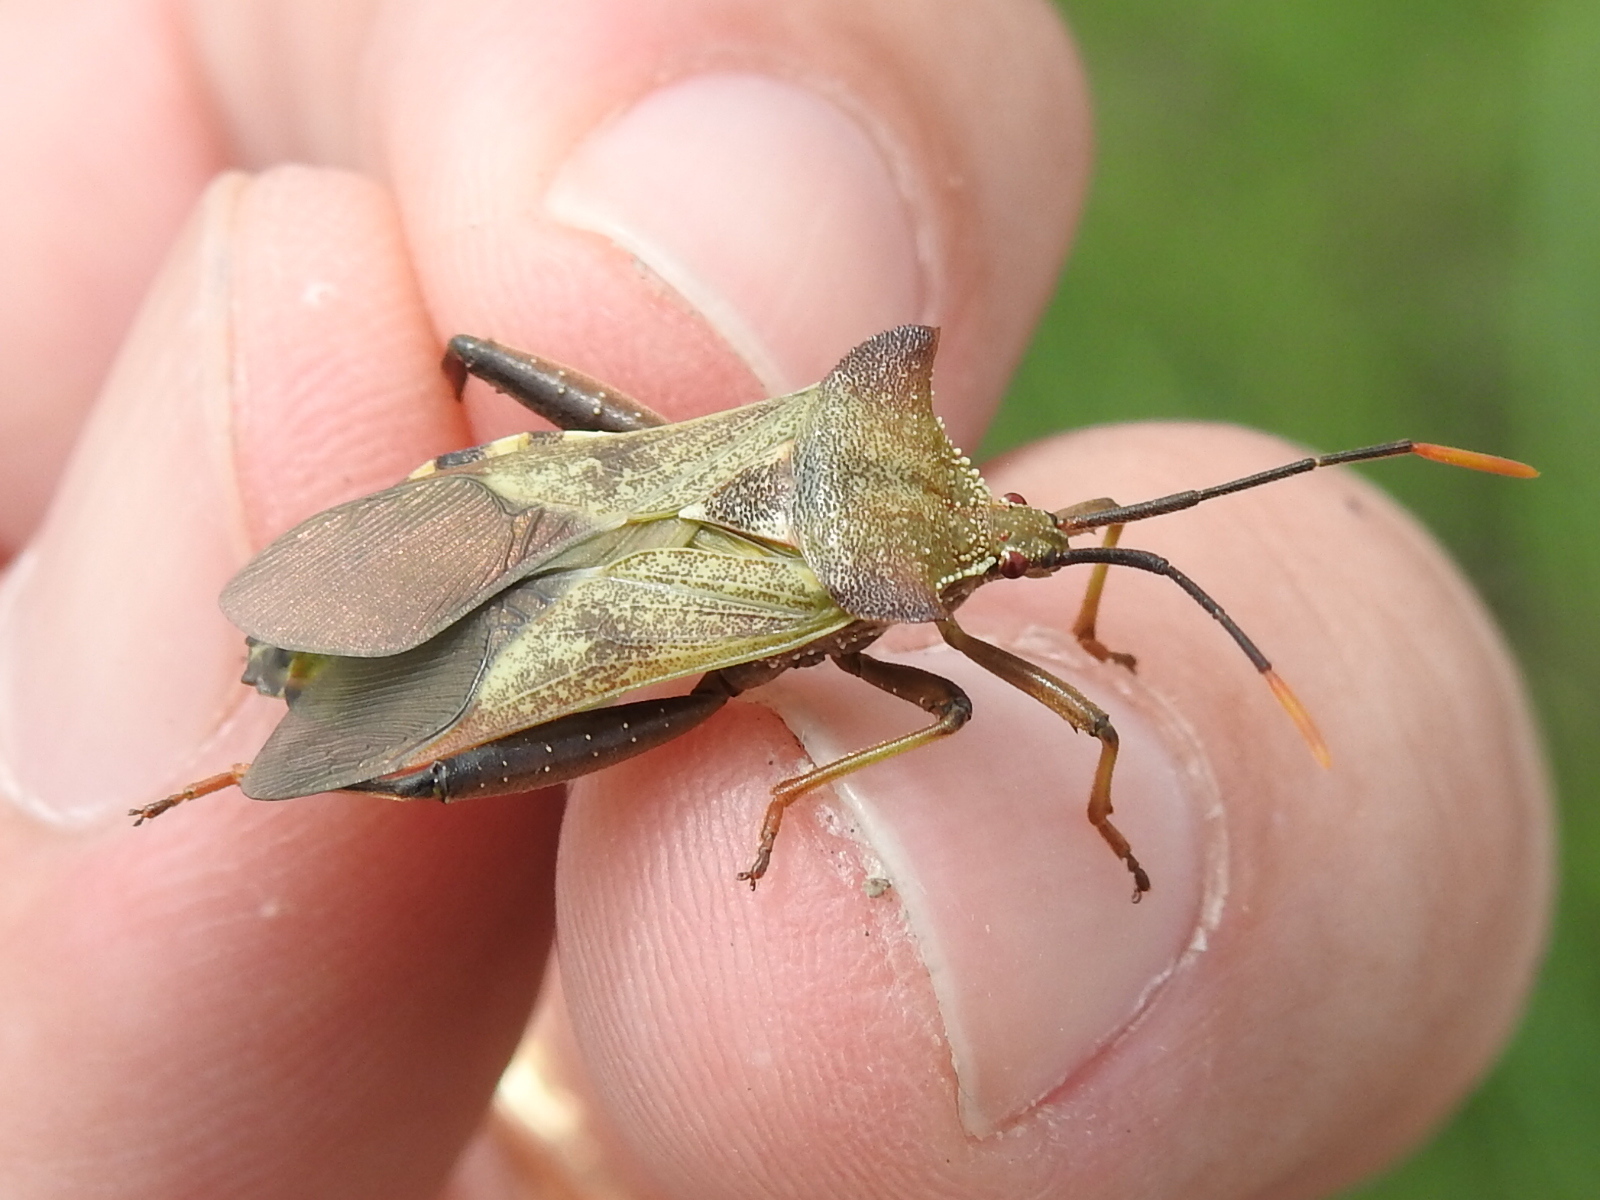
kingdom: Animalia
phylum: Arthropoda
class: Insecta
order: Hemiptera
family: Coreidae
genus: Mozena
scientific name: Mozena lunata
